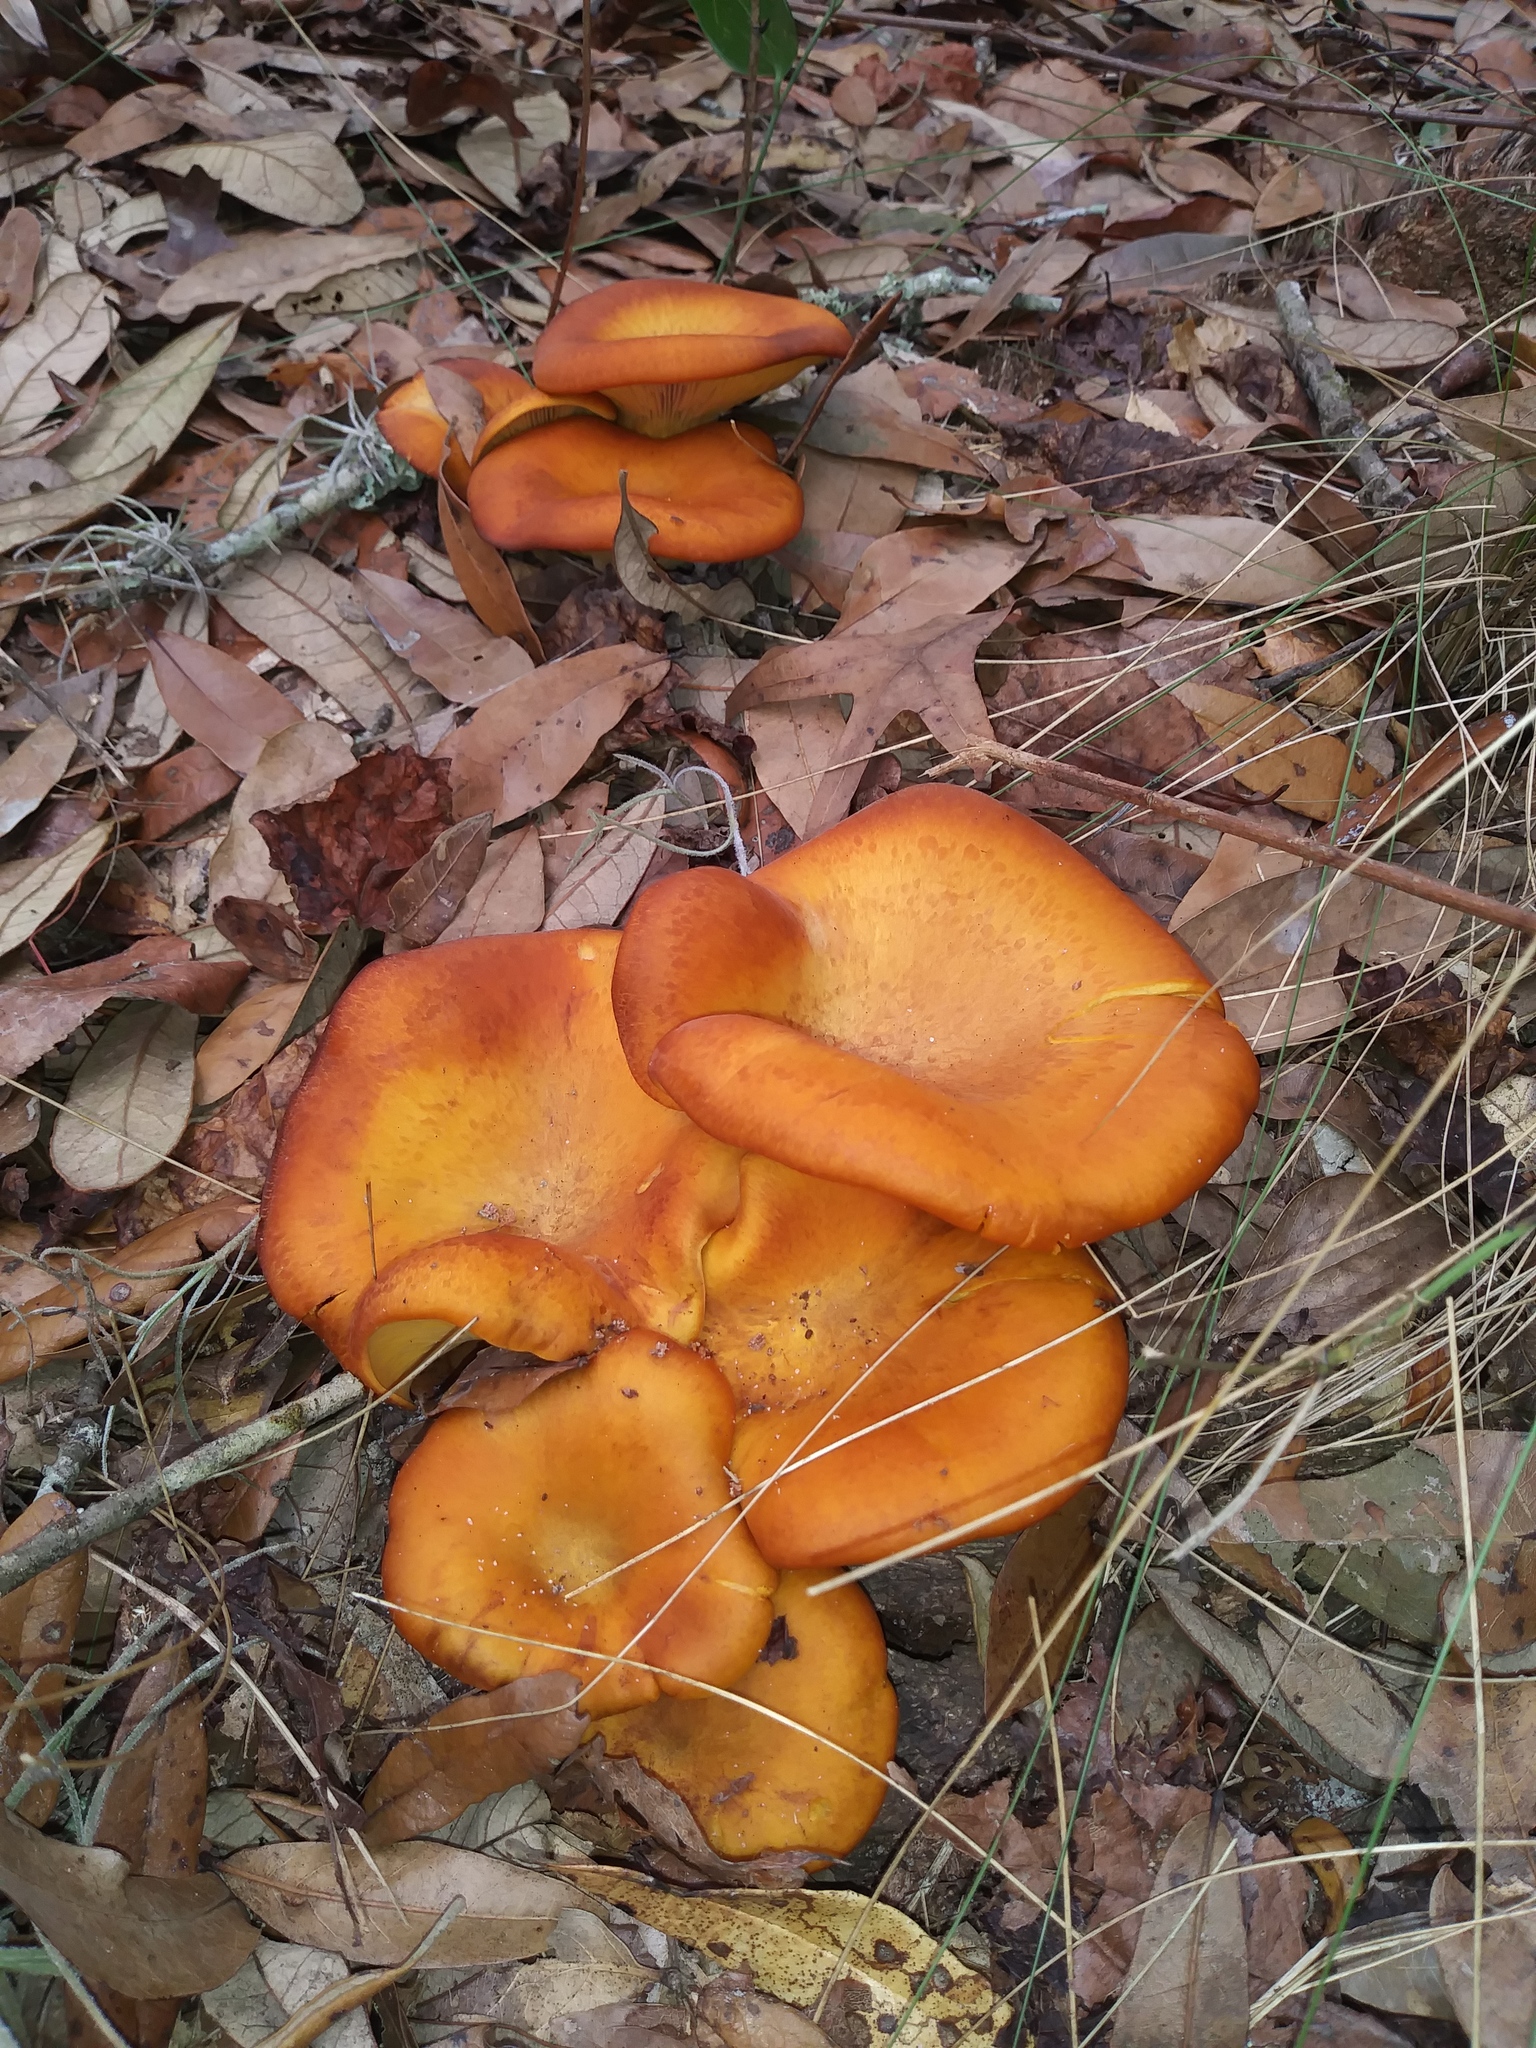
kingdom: Fungi
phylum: Basidiomycota
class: Agaricomycetes
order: Agaricales
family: Omphalotaceae
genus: Omphalotus
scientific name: Omphalotus subilludens
